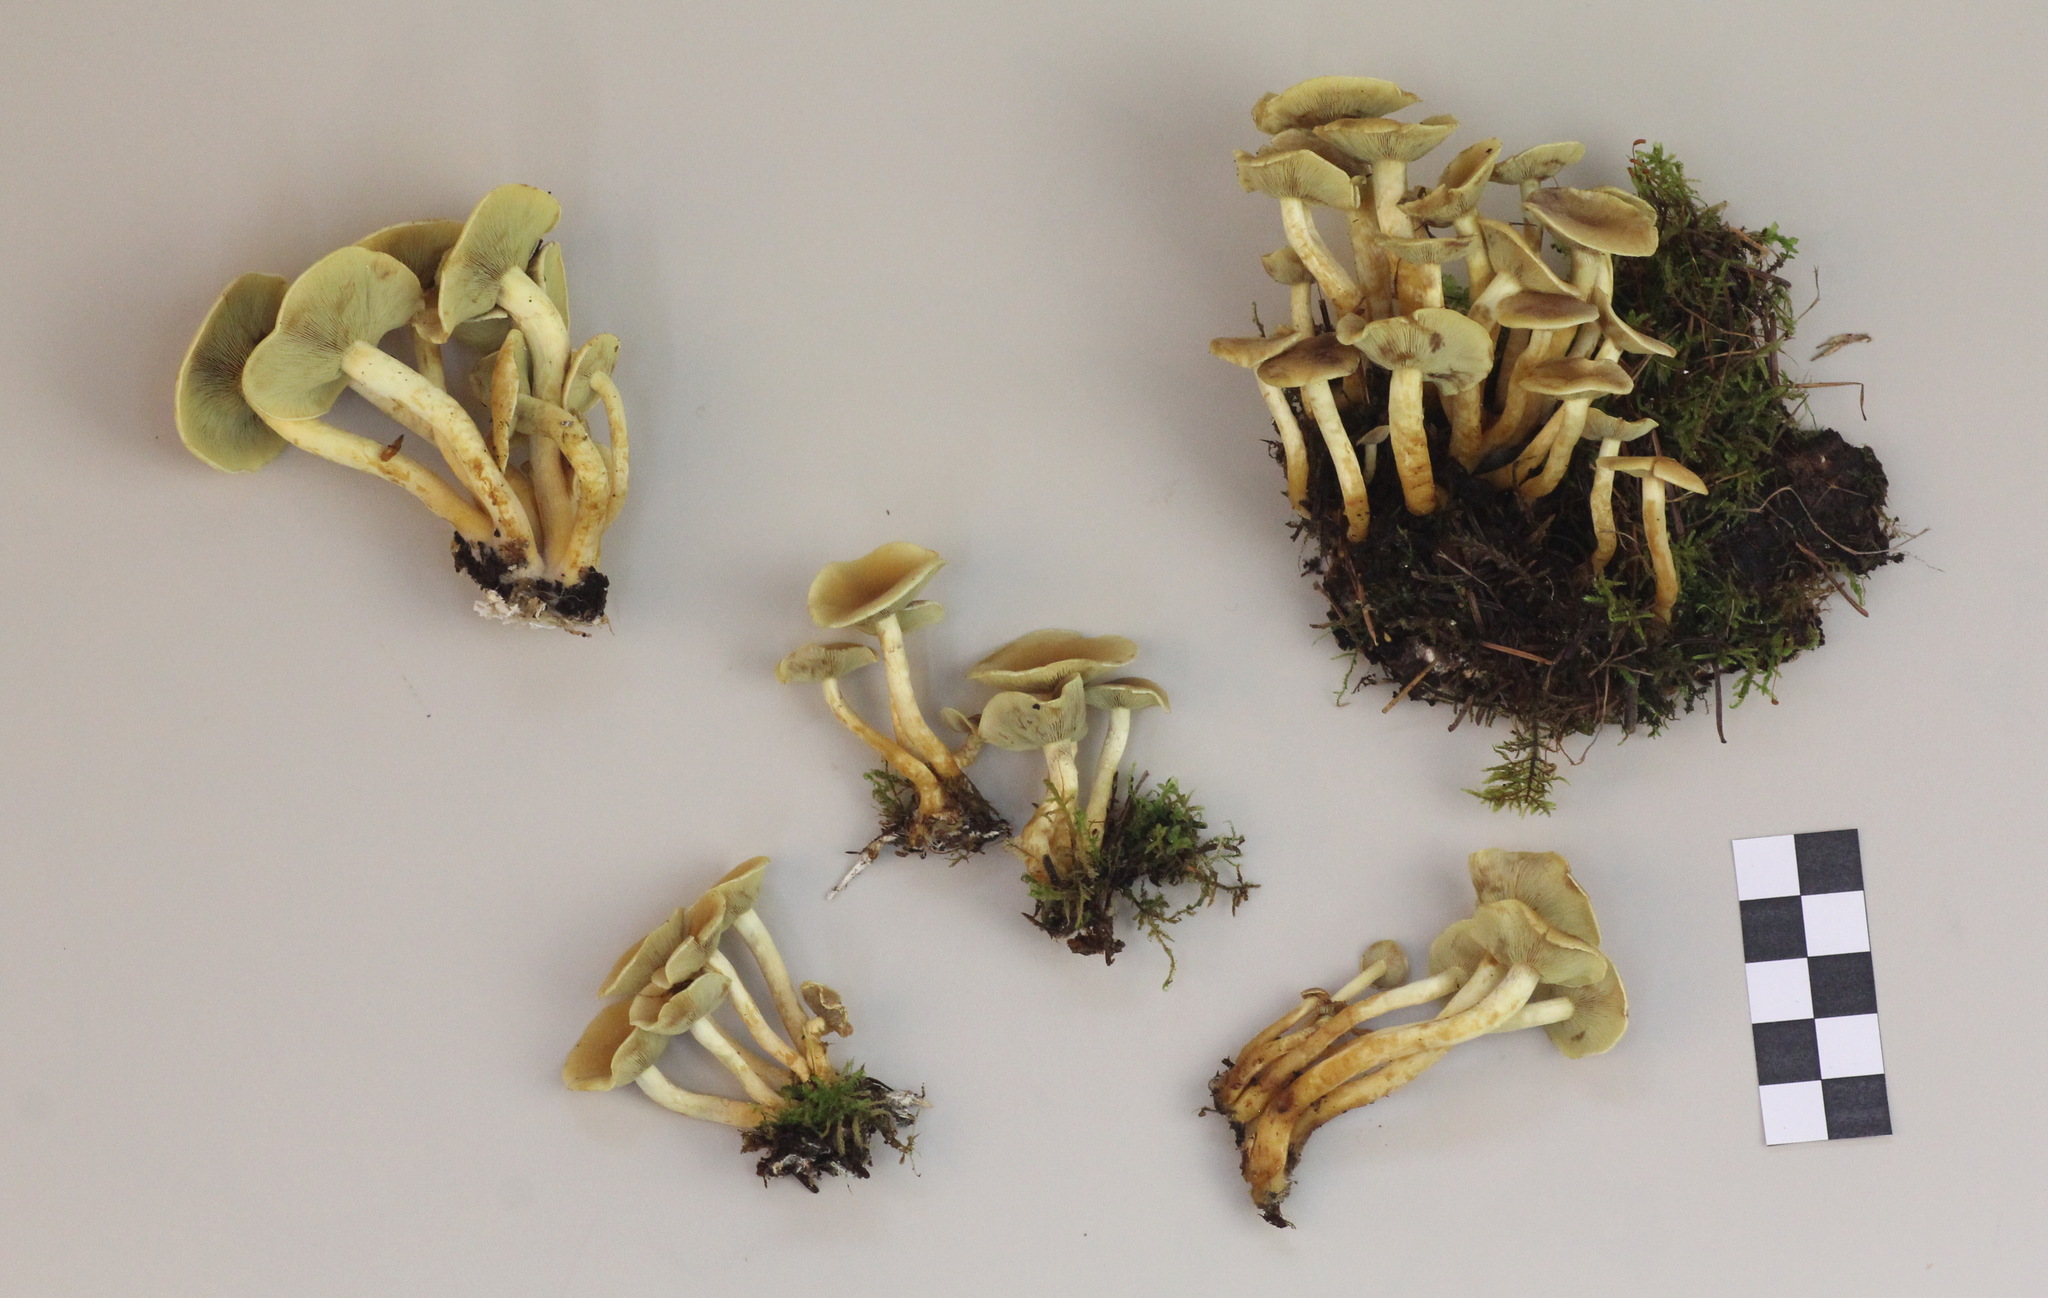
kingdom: Fungi
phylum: Basidiomycota
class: Agaricomycetes
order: Agaricales
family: Strophariaceae
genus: Hypholoma
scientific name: Hypholoma fasciculare
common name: Sulphur tuft
